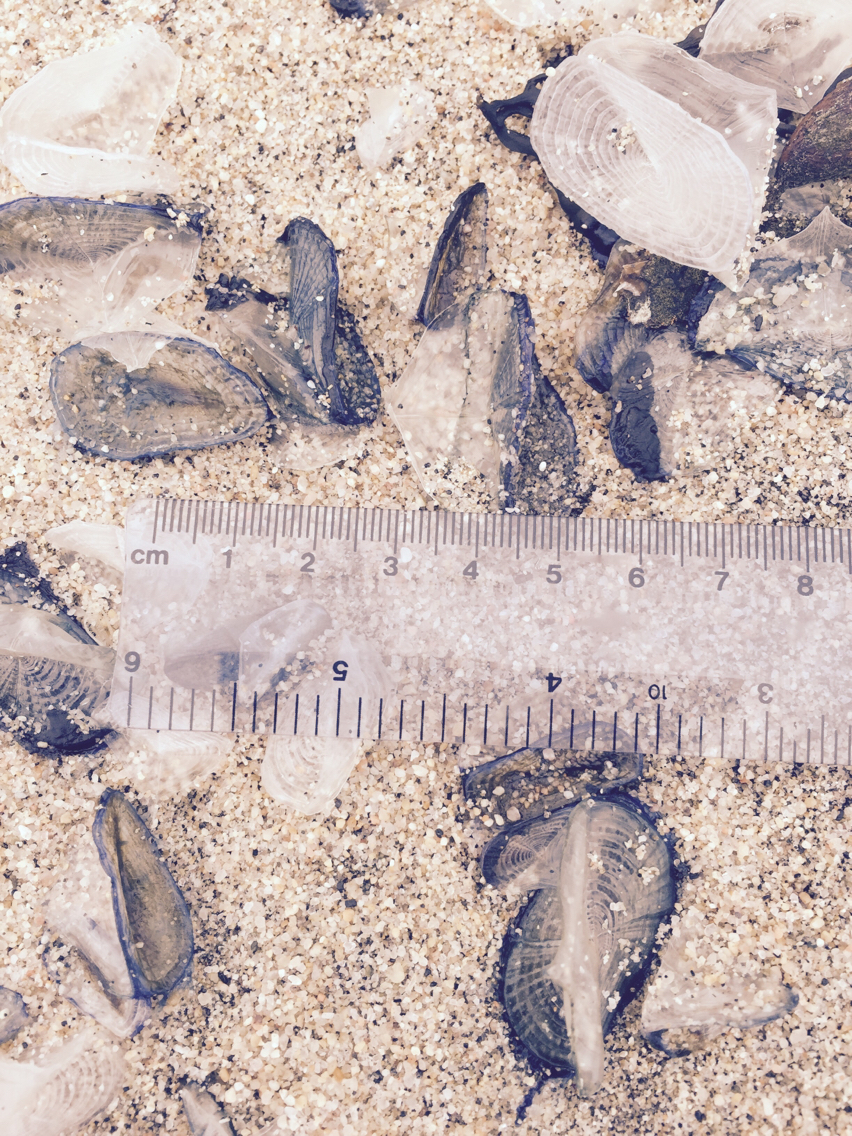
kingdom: Animalia
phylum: Cnidaria
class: Hydrozoa
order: Anthoathecata
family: Porpitidae
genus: Velella
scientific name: Velella velella
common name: By-the-wind-sailor
